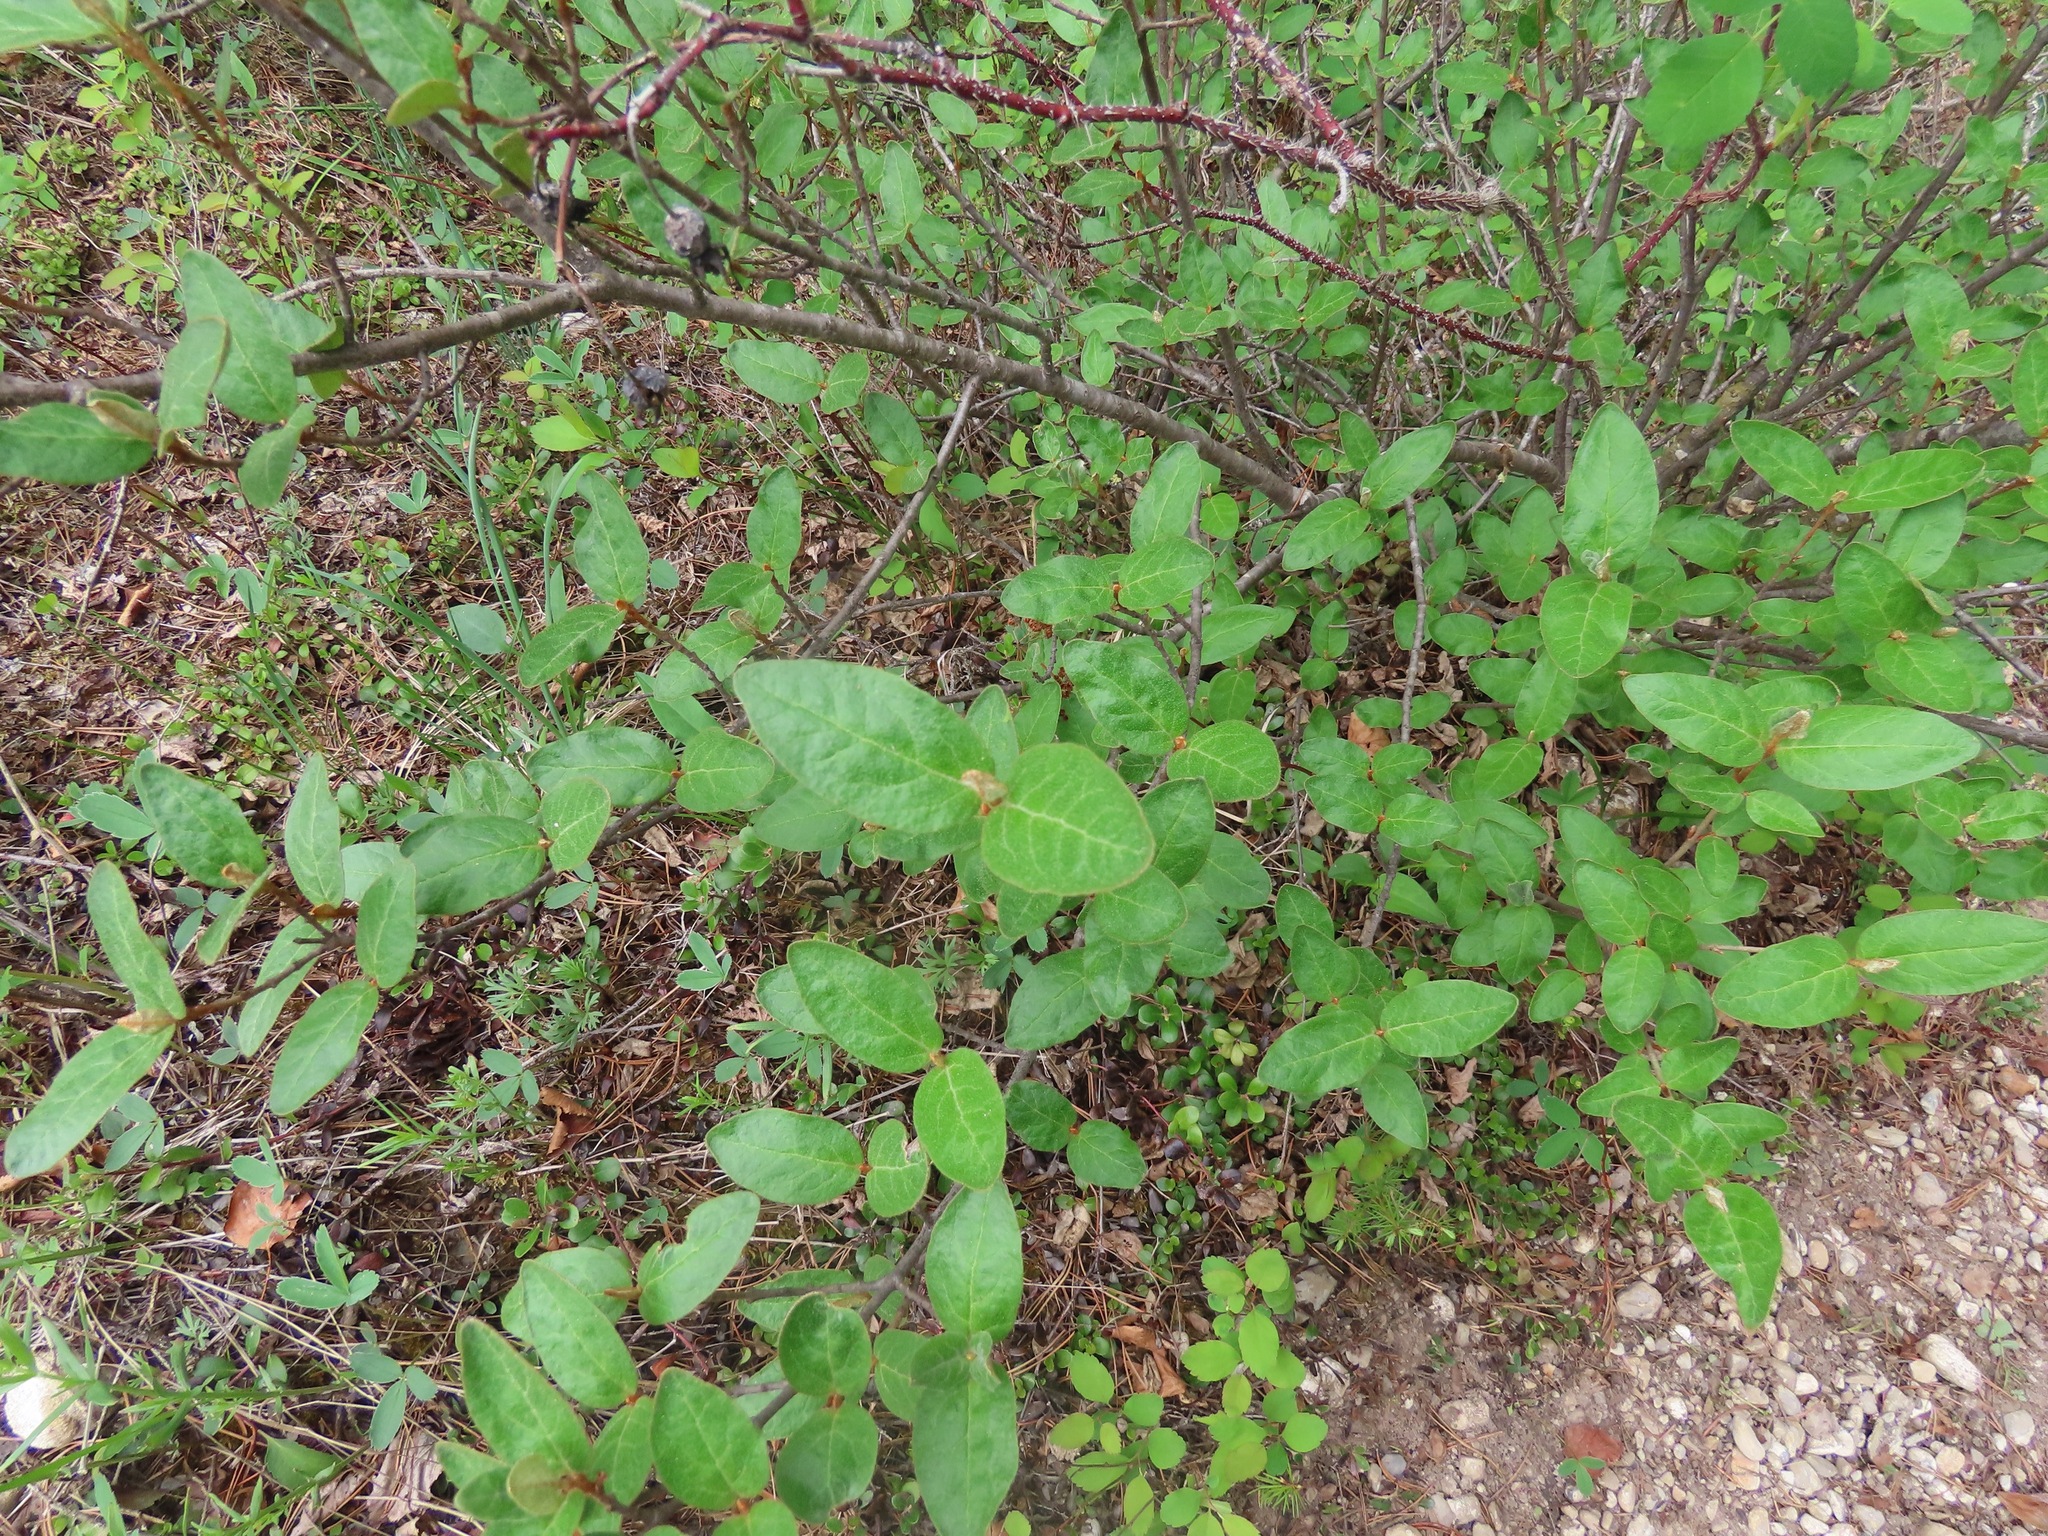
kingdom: Plantae
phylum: Tracheophyta
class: Magnoliopsida
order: Rosales
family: Elaeagnaceae
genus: Shepherdia
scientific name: Shepherdia canadensis
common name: Soapberry
